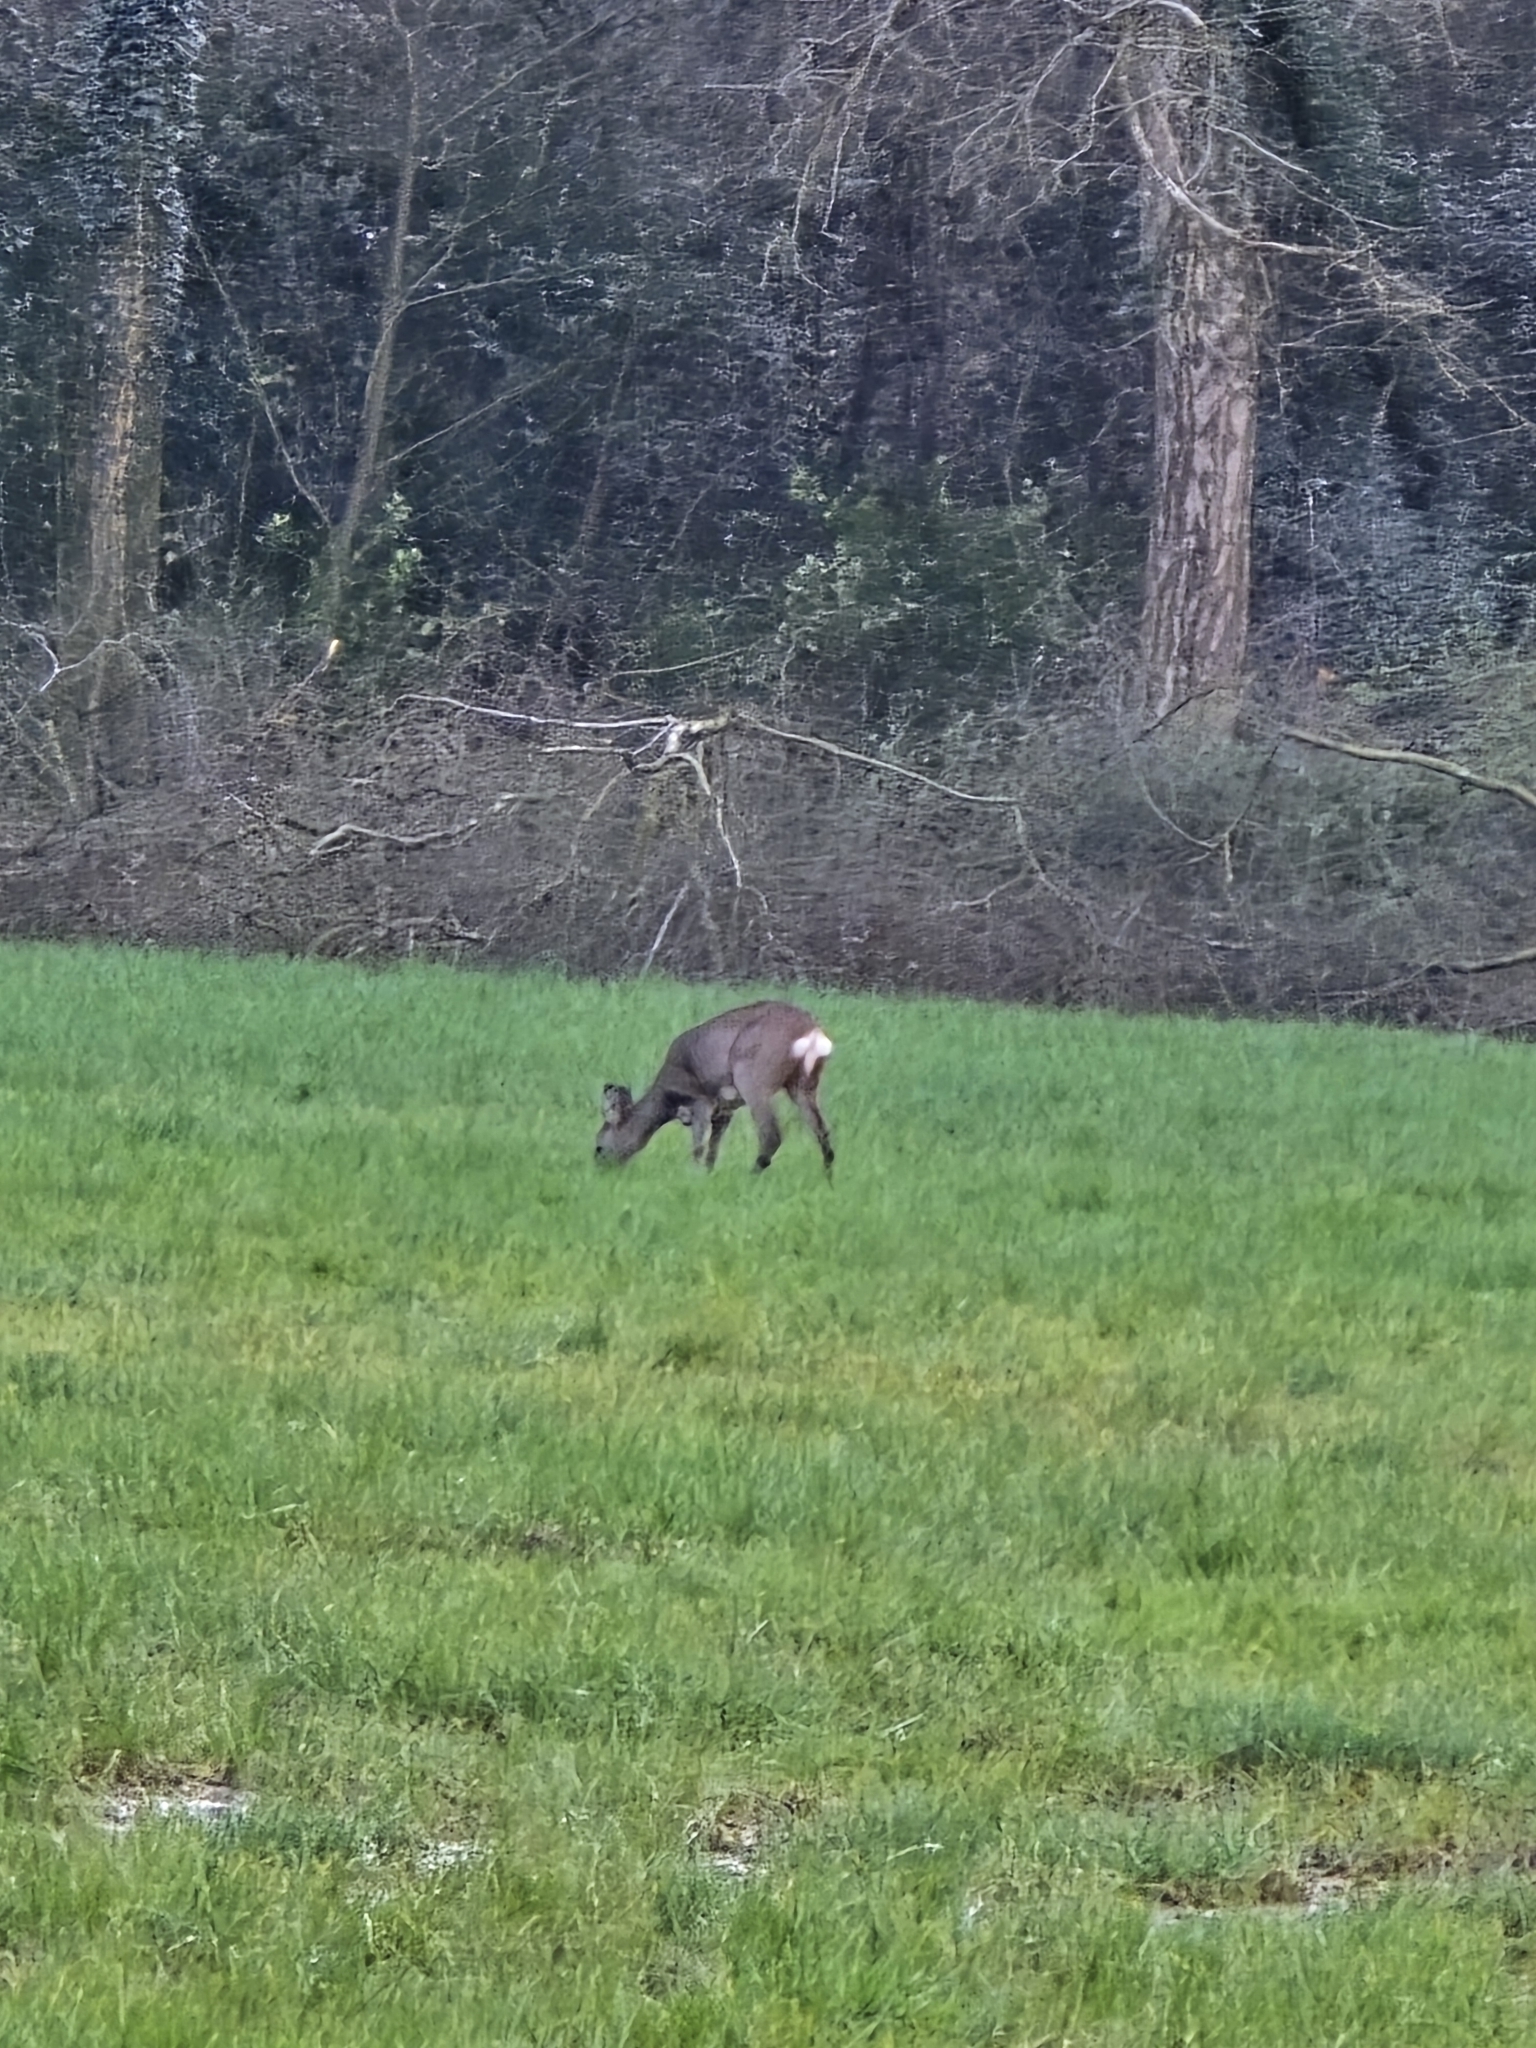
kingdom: Animalia
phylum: Chordata
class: Mammalia
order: Artiodactyla
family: Cervidae
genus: Capreolus
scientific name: Capreolus capreolus
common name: Western roe deer
